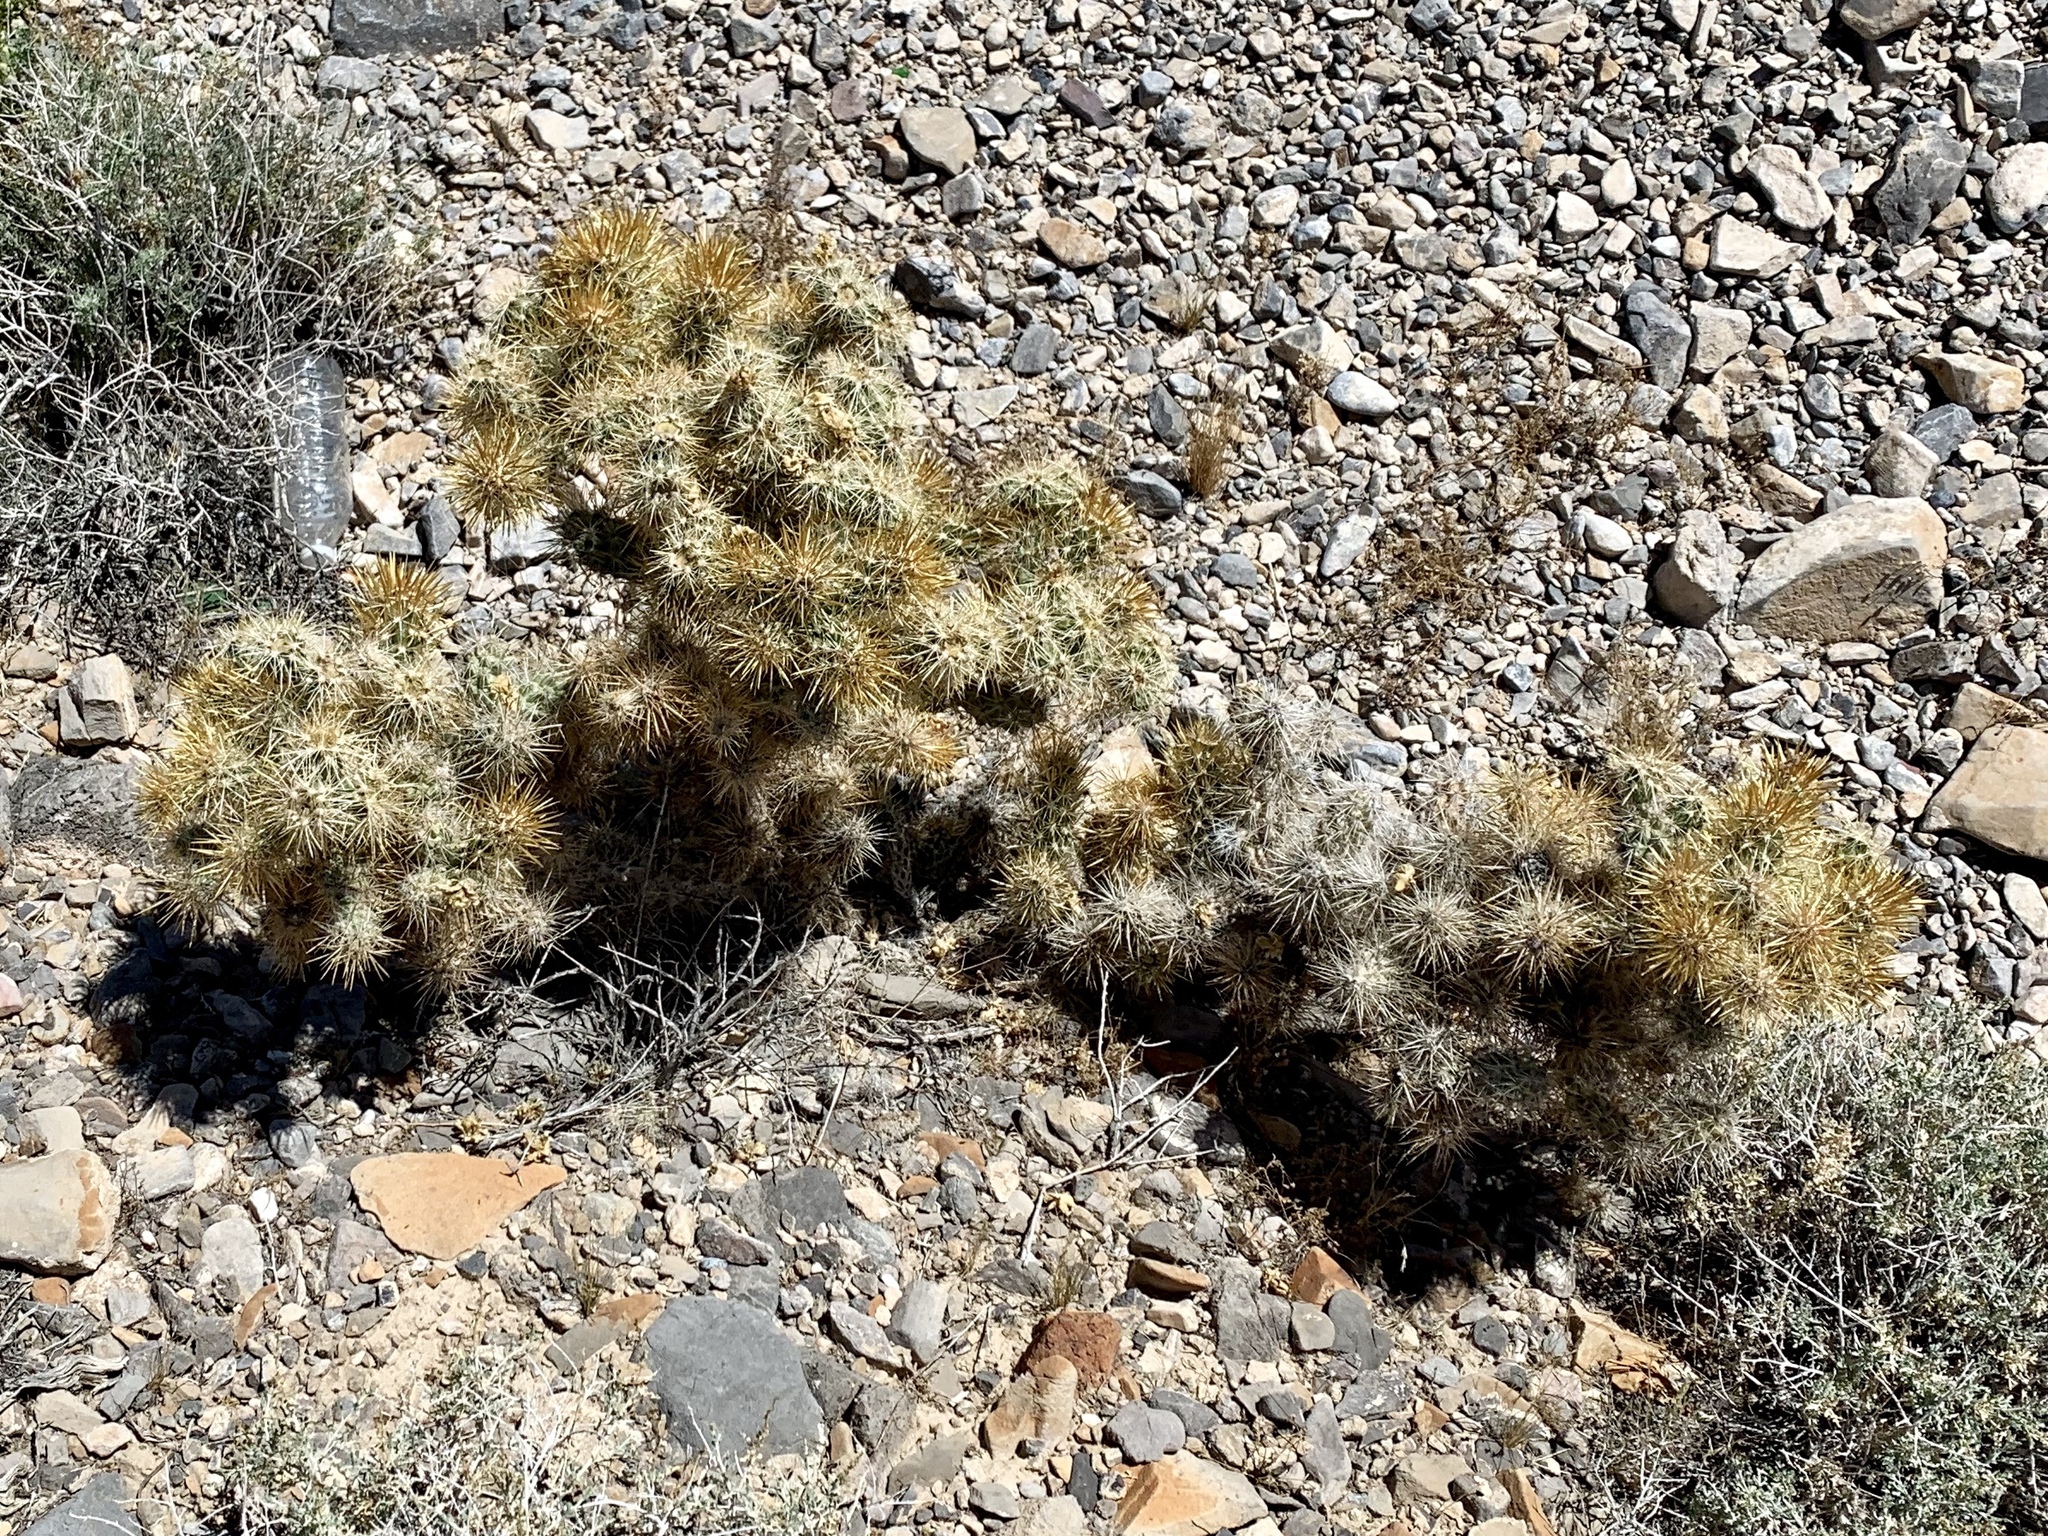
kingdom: Plantae
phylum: Tracheophyta
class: Magnoliopsida
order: Caryophyllales
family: Cactaceae
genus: Cylindropuntia
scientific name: Cylindropuntia echinocarpa
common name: Ground cholla
